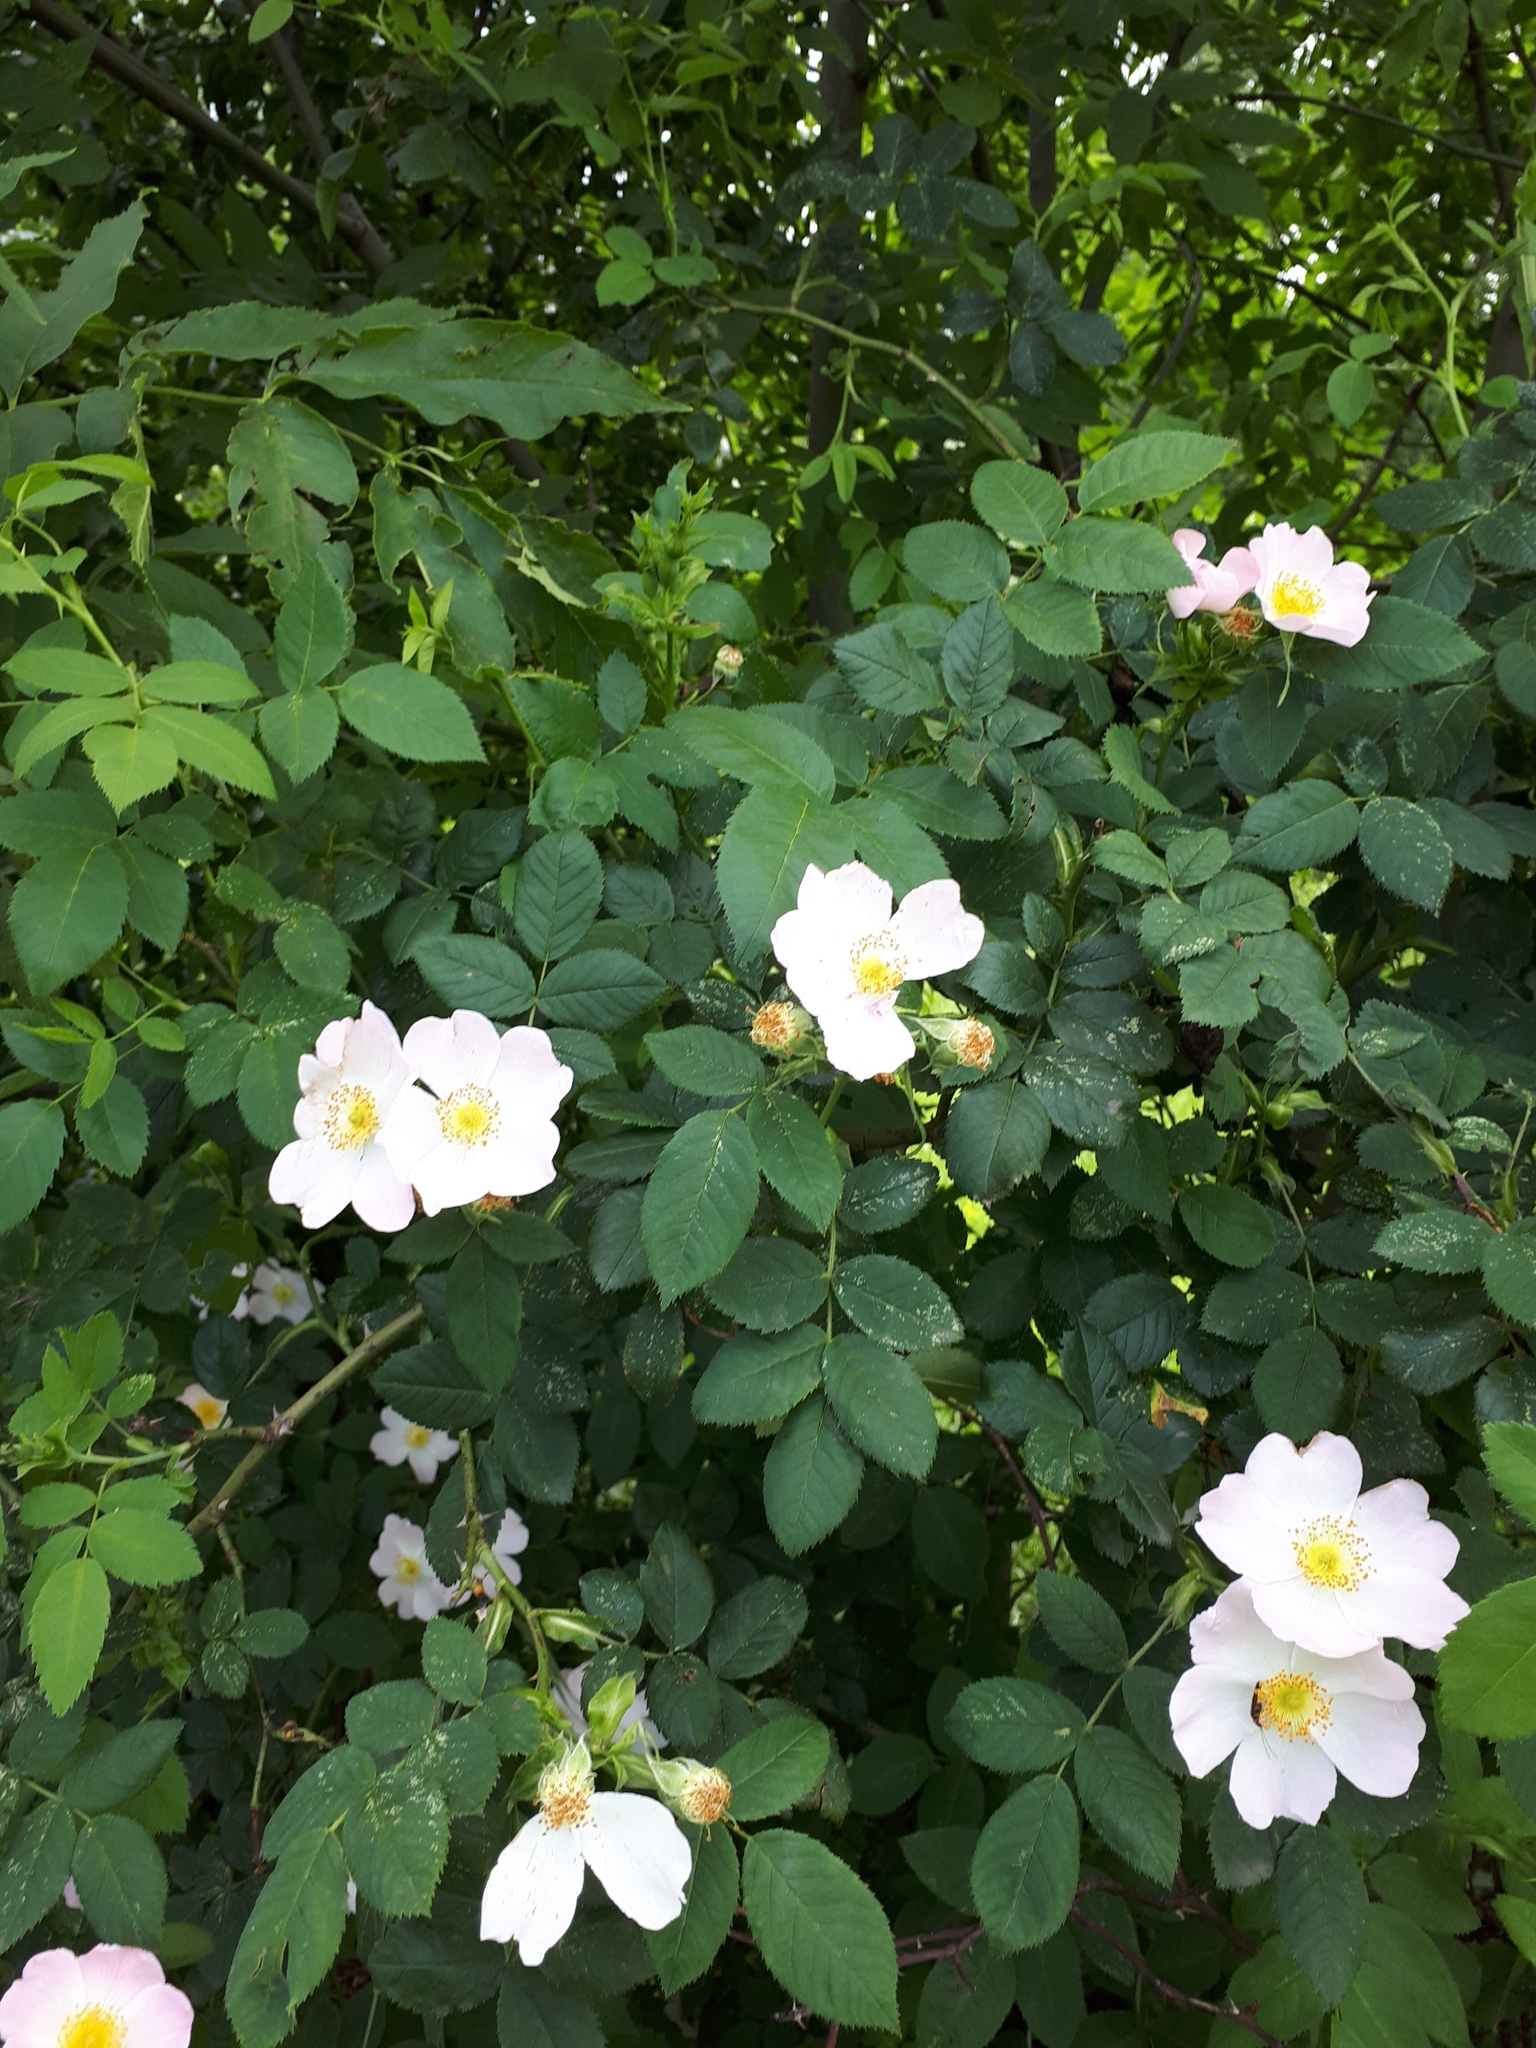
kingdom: Plantae
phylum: Tracheophyta
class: Magnoliopsida
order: Rosales
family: Rosaceae
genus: Rosa
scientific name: Rosa
